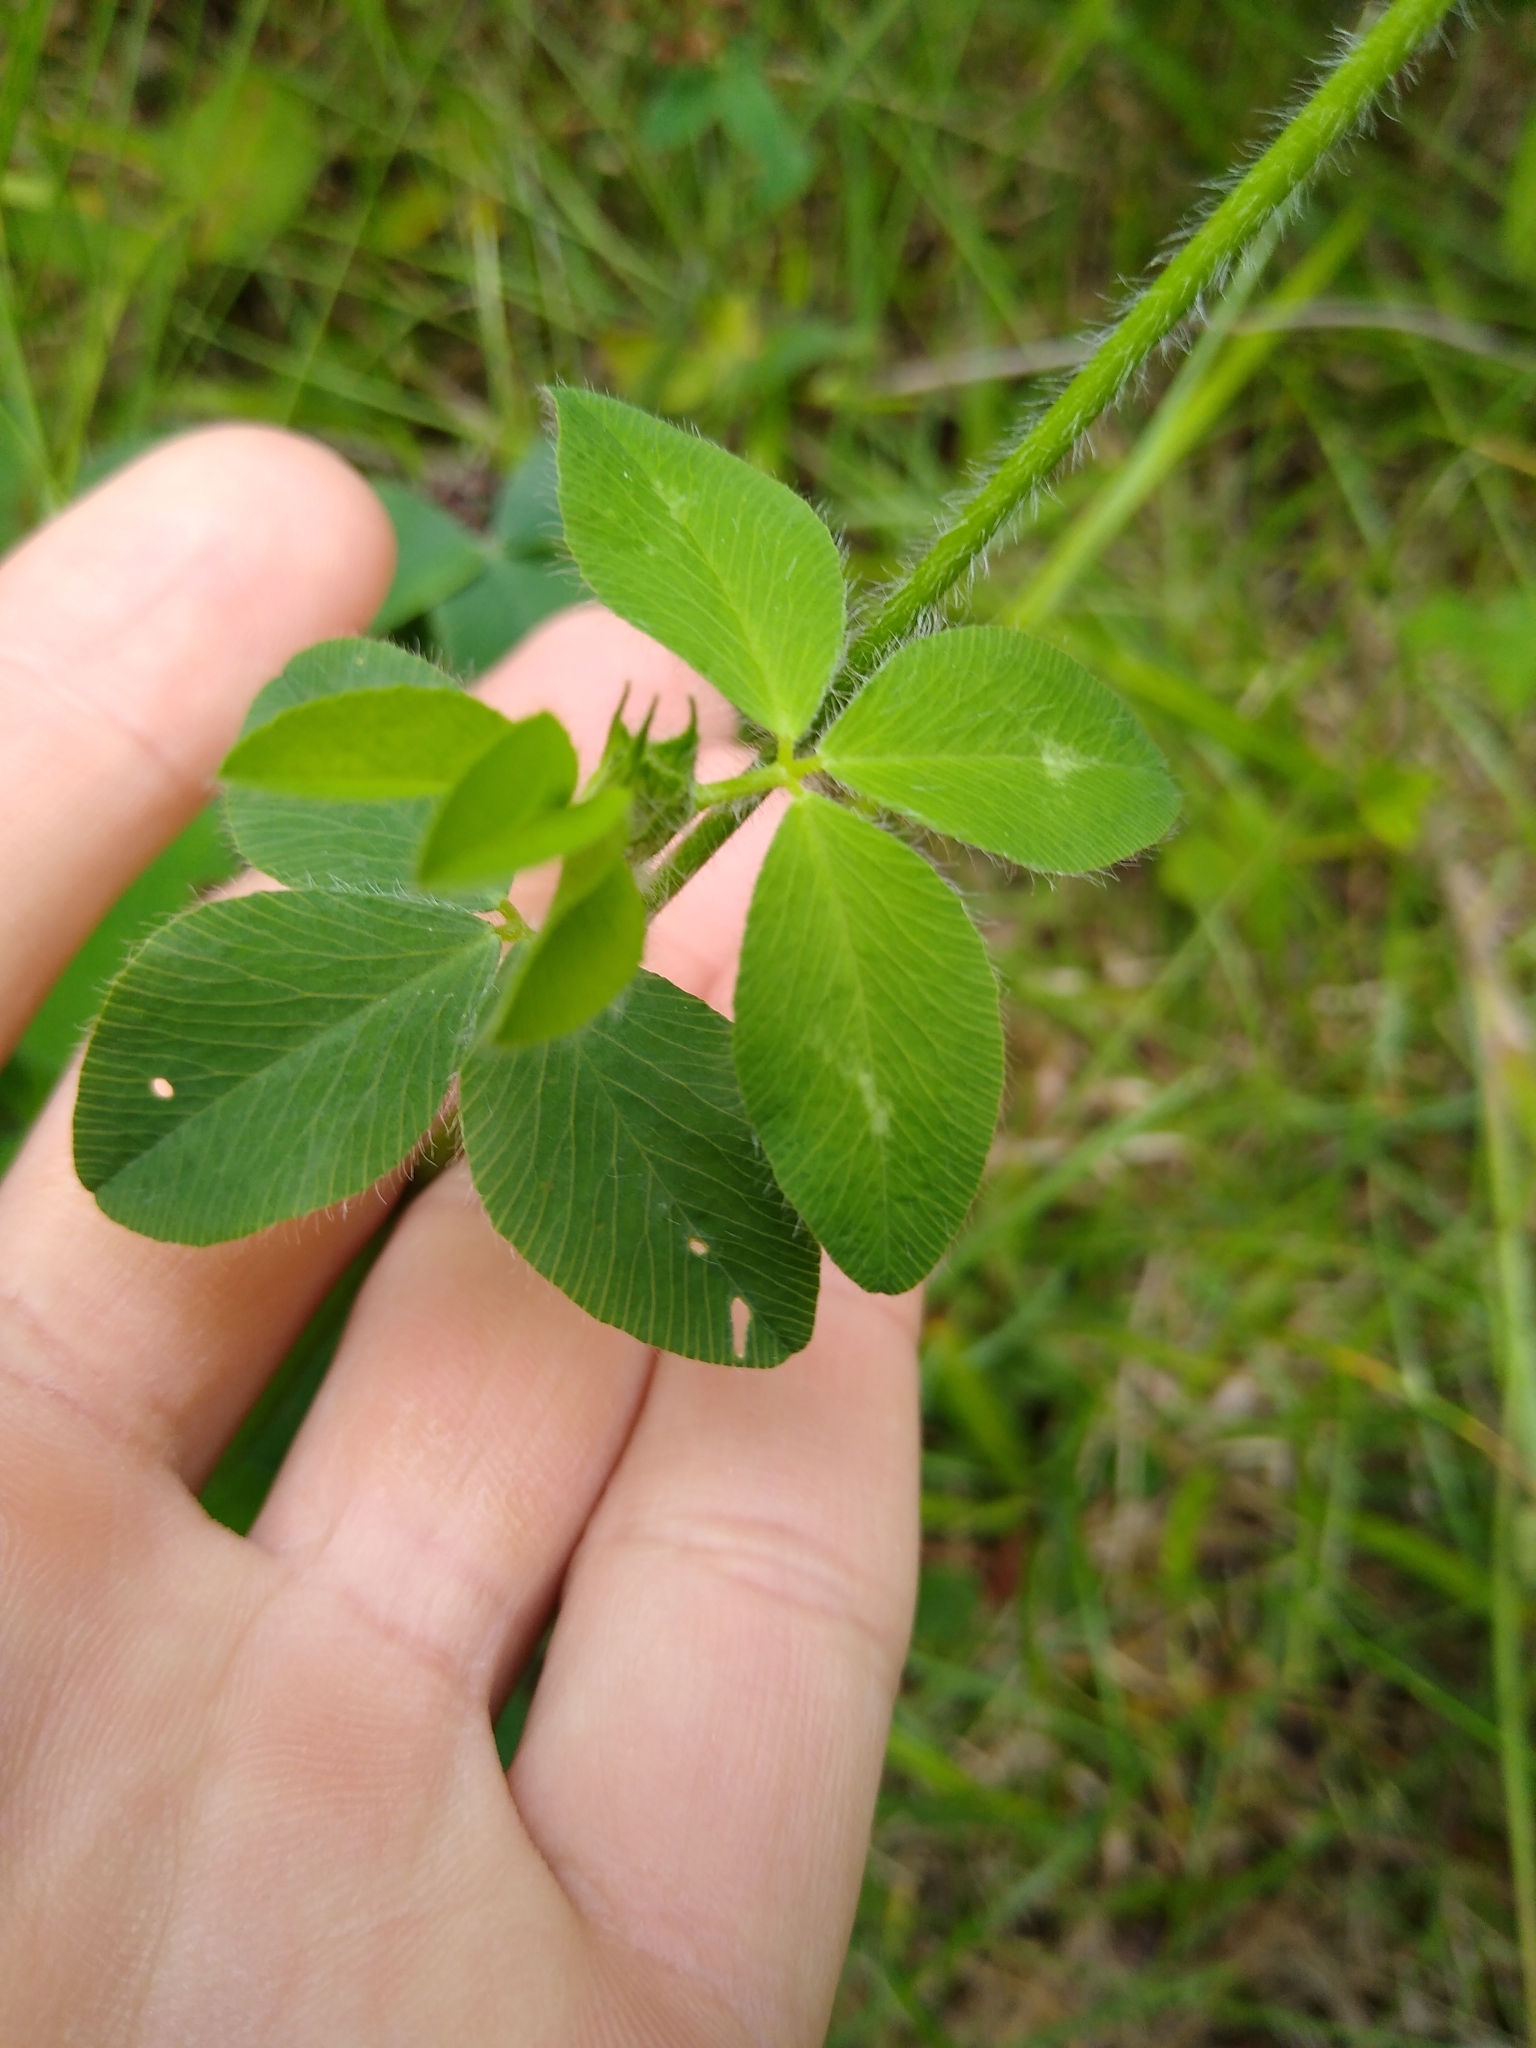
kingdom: Plantae
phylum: Tracheophyta
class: Magnoliopsida
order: Fabales
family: Fabaceae
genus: Trifolium
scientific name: Trifolium pratense
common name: Red clover
